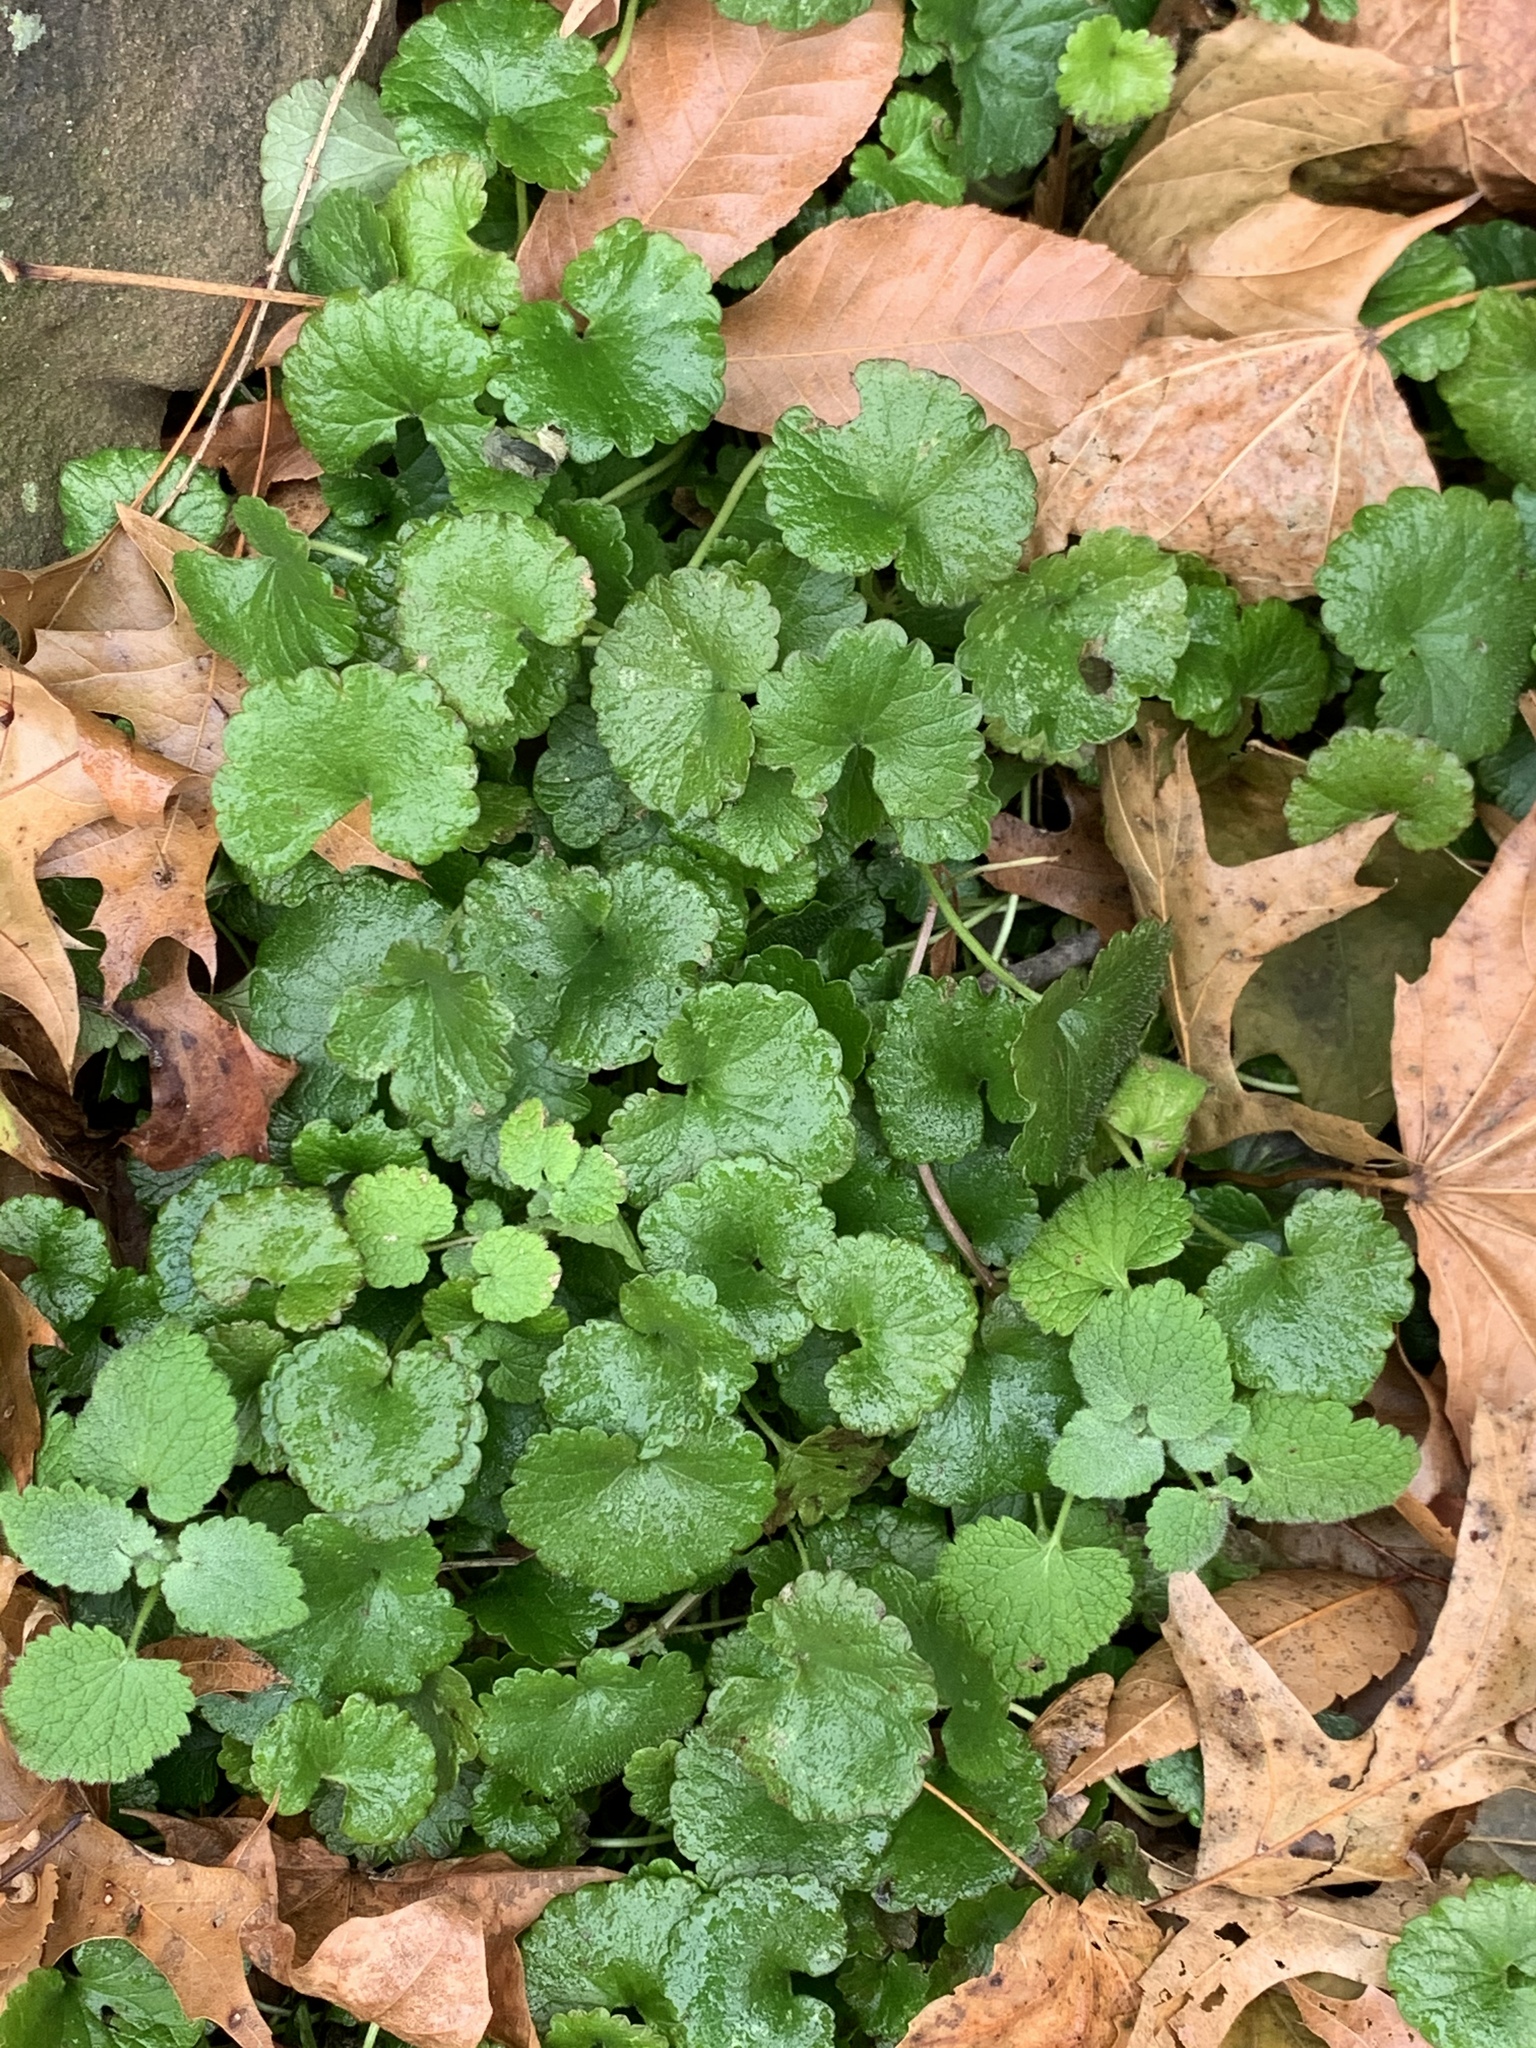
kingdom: Plantae
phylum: Tracheophyta
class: Magnoliopsida
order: Lamiales
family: Lamiaceae
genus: Glechoma
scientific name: Glechoma hederacea
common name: Ground ivy
